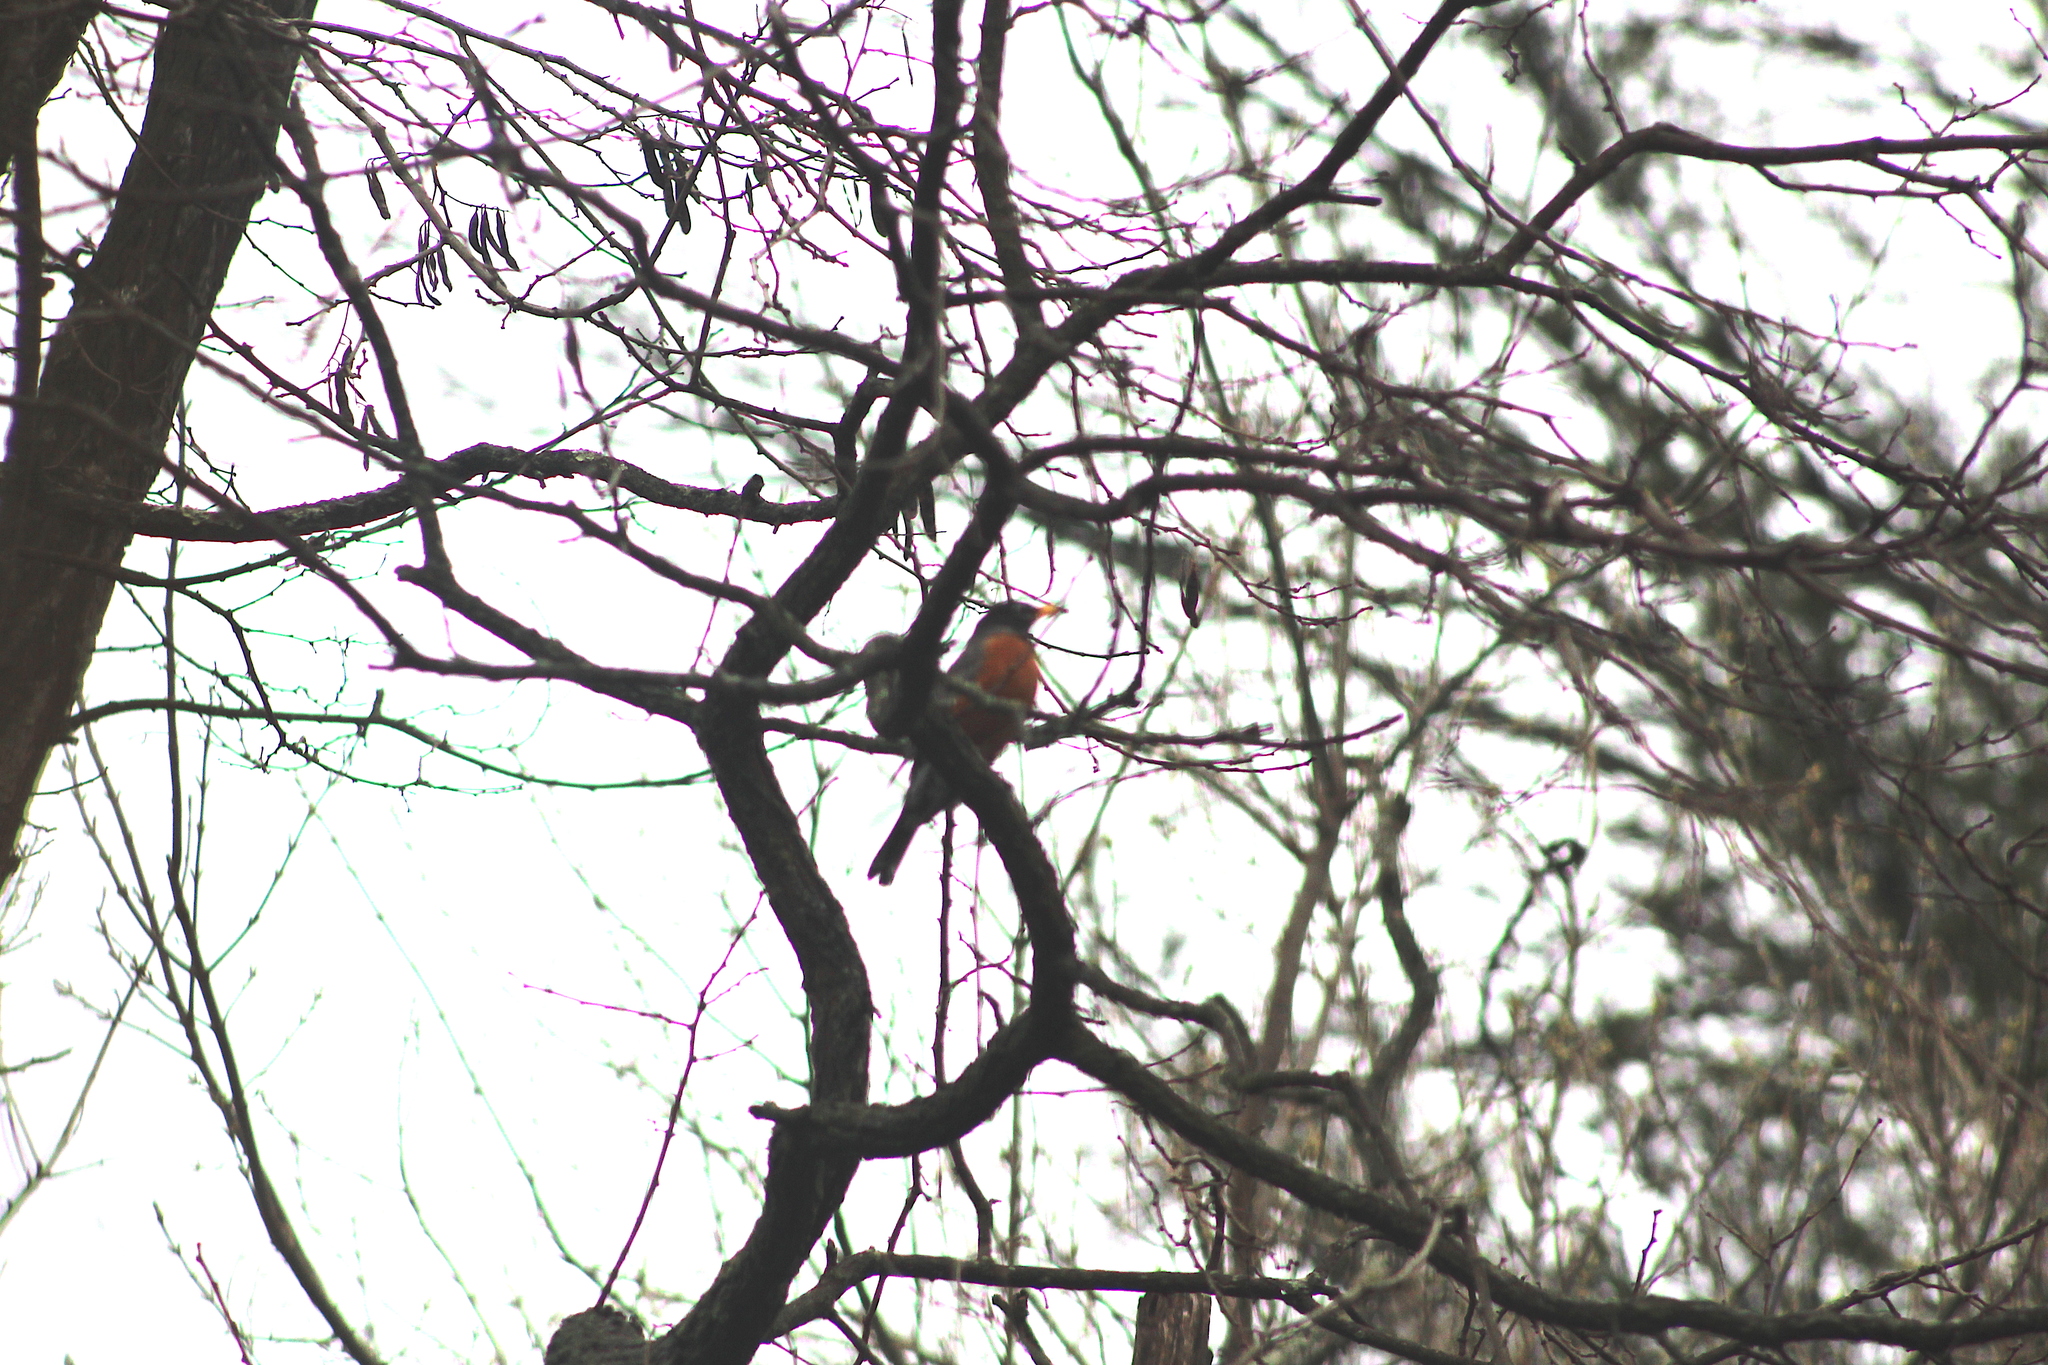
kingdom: Animalia
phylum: Chordata
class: Aves
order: Passeriformes
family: Turdidae
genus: Turdus
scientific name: Turdus migratorius
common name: American robin
